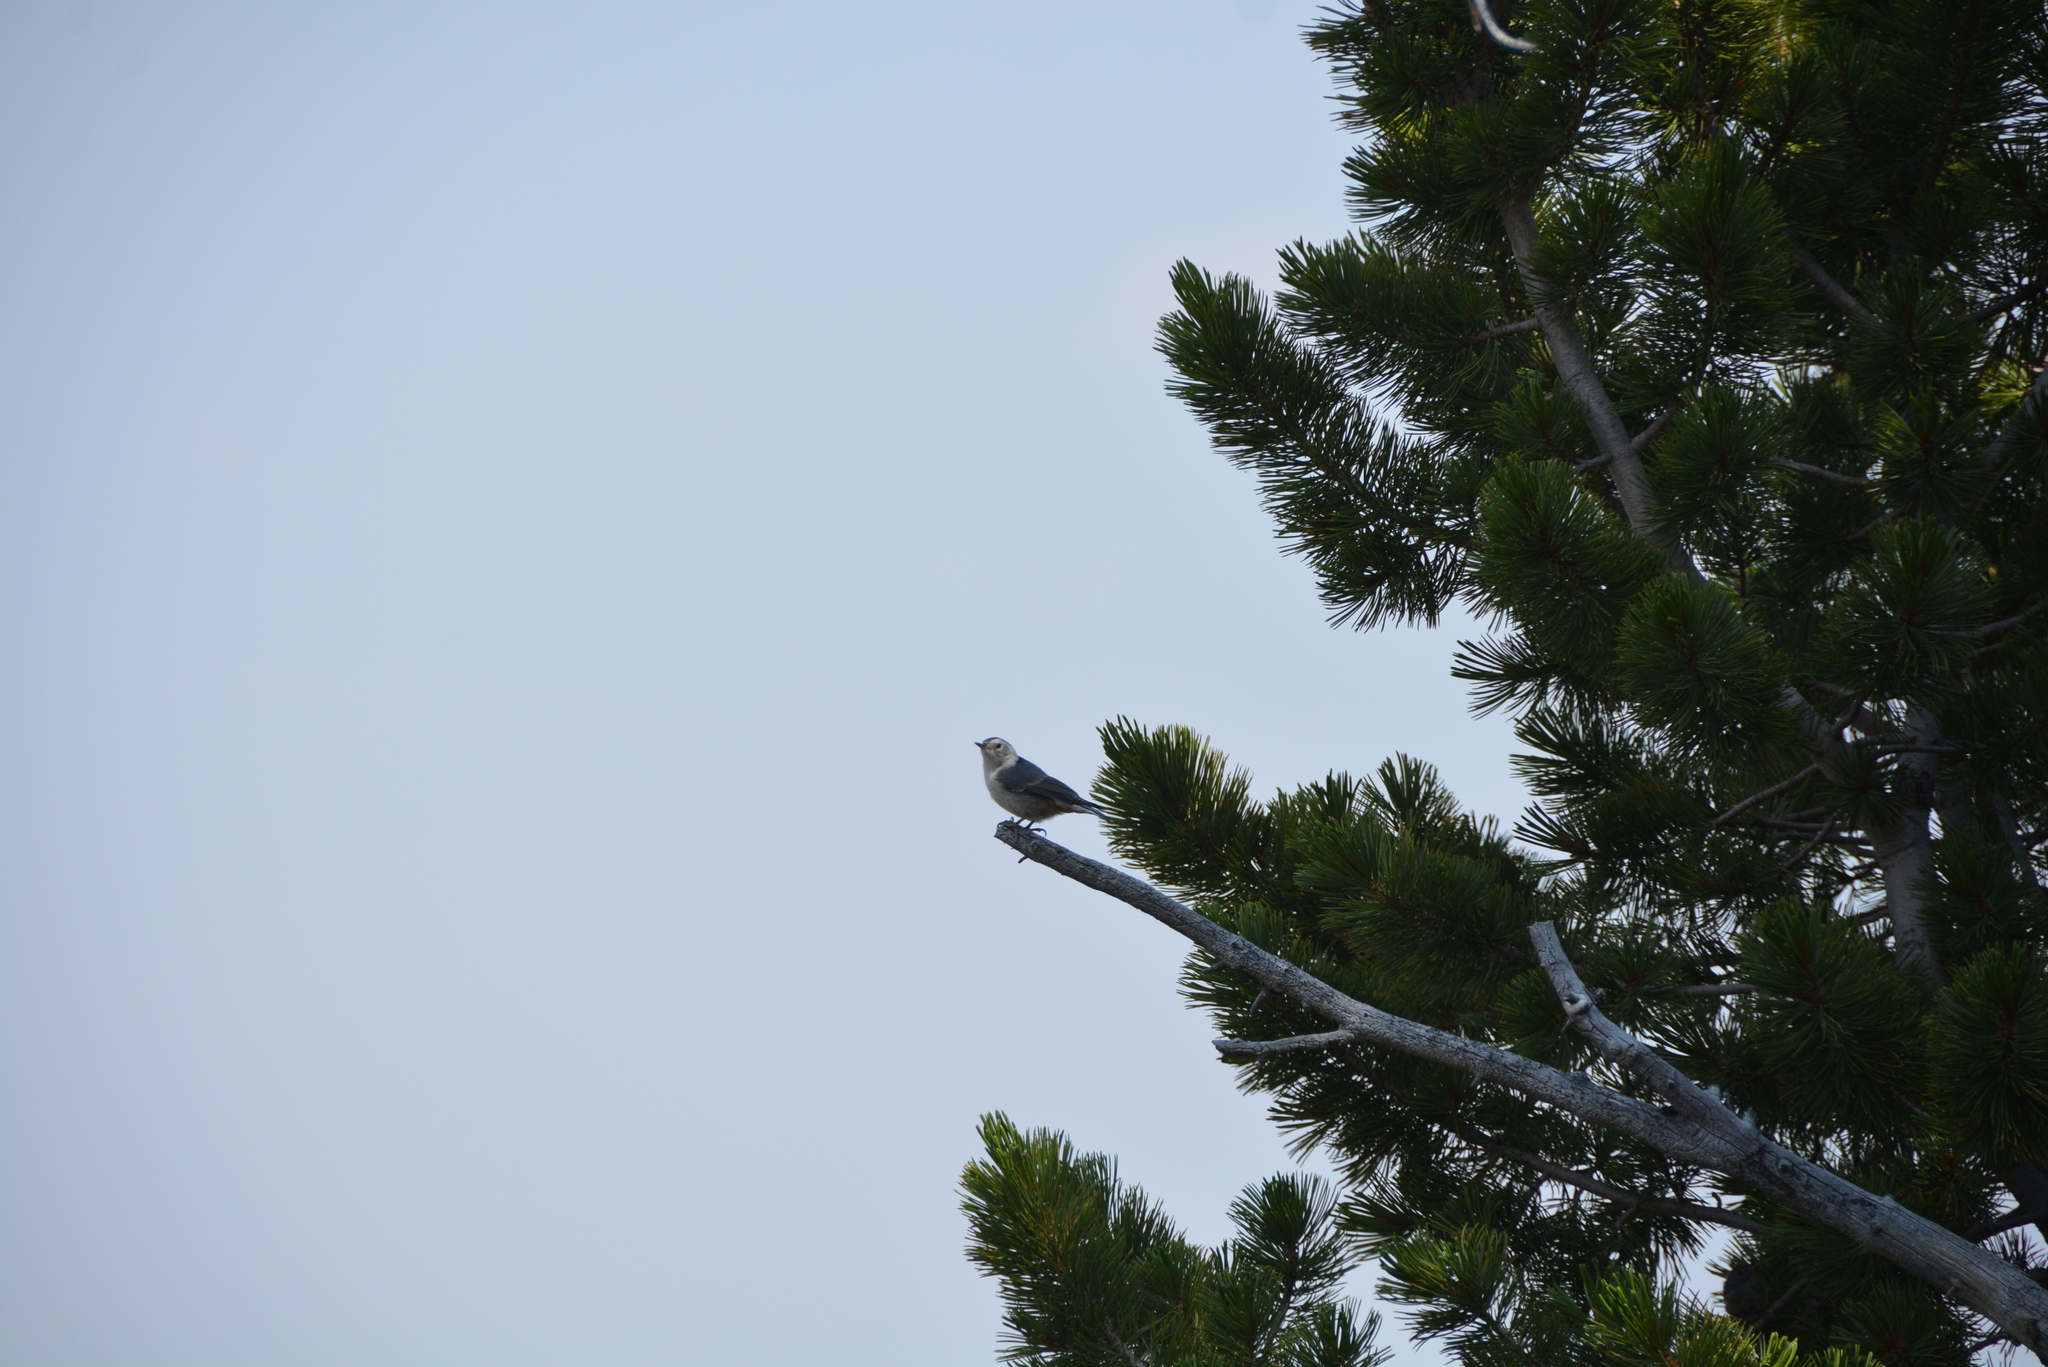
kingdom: Animalia
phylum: Chordata
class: Aves
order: Passeriformes
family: Sittidae
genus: Sitta
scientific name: Sitta carolinensis
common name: White-breasted nuthatch
